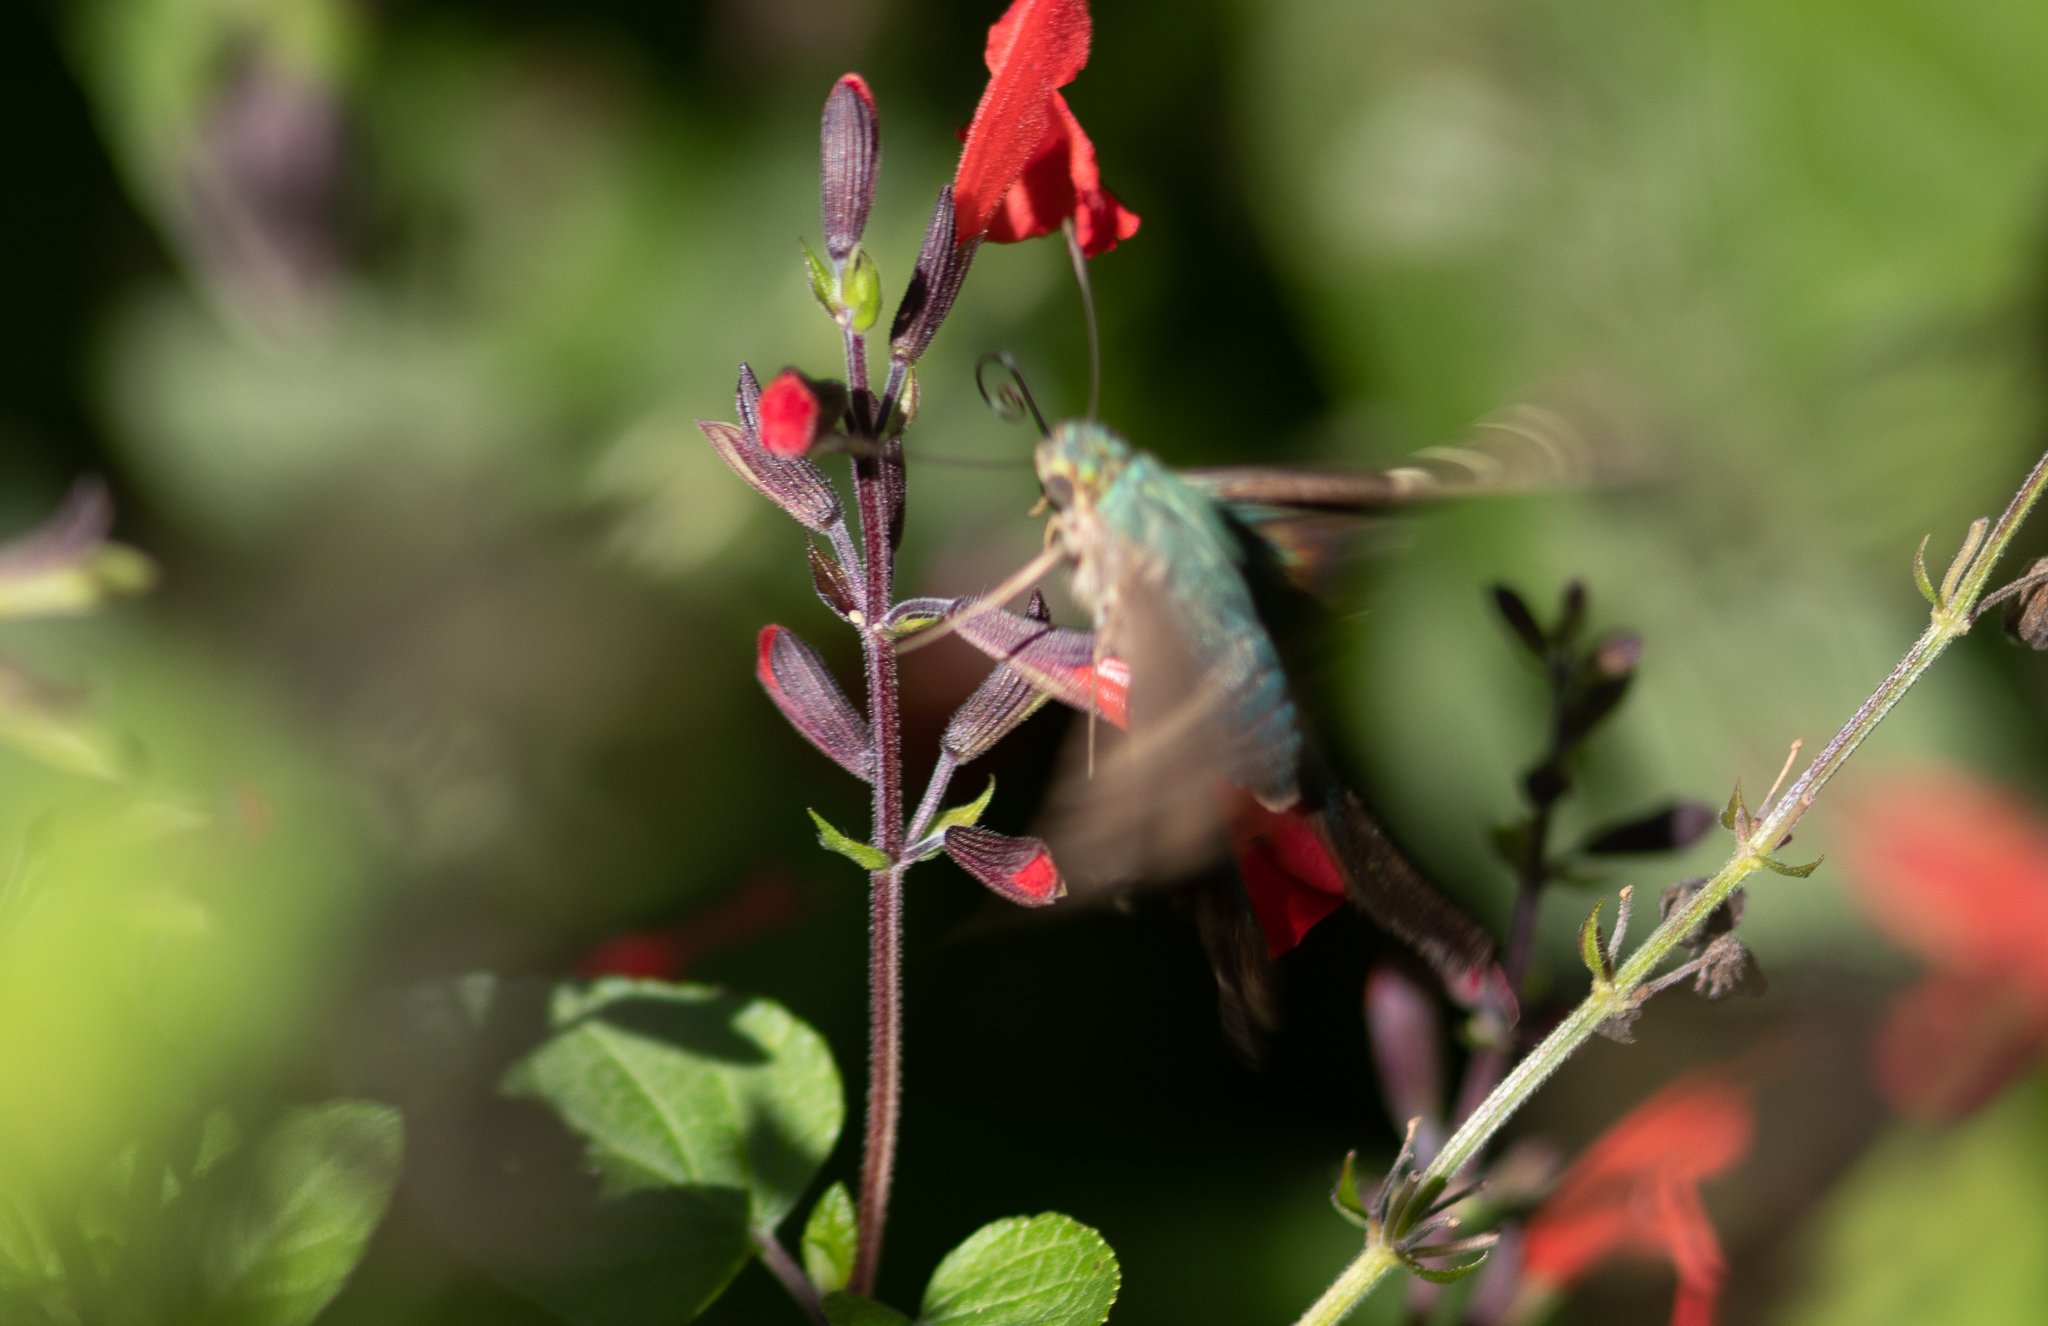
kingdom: Animalia
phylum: Arthropoda
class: Insecta
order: Lepidoptera
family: Hesperiidae
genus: Urbanus
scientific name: Urbanus proteus
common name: Long-tailed skipper
